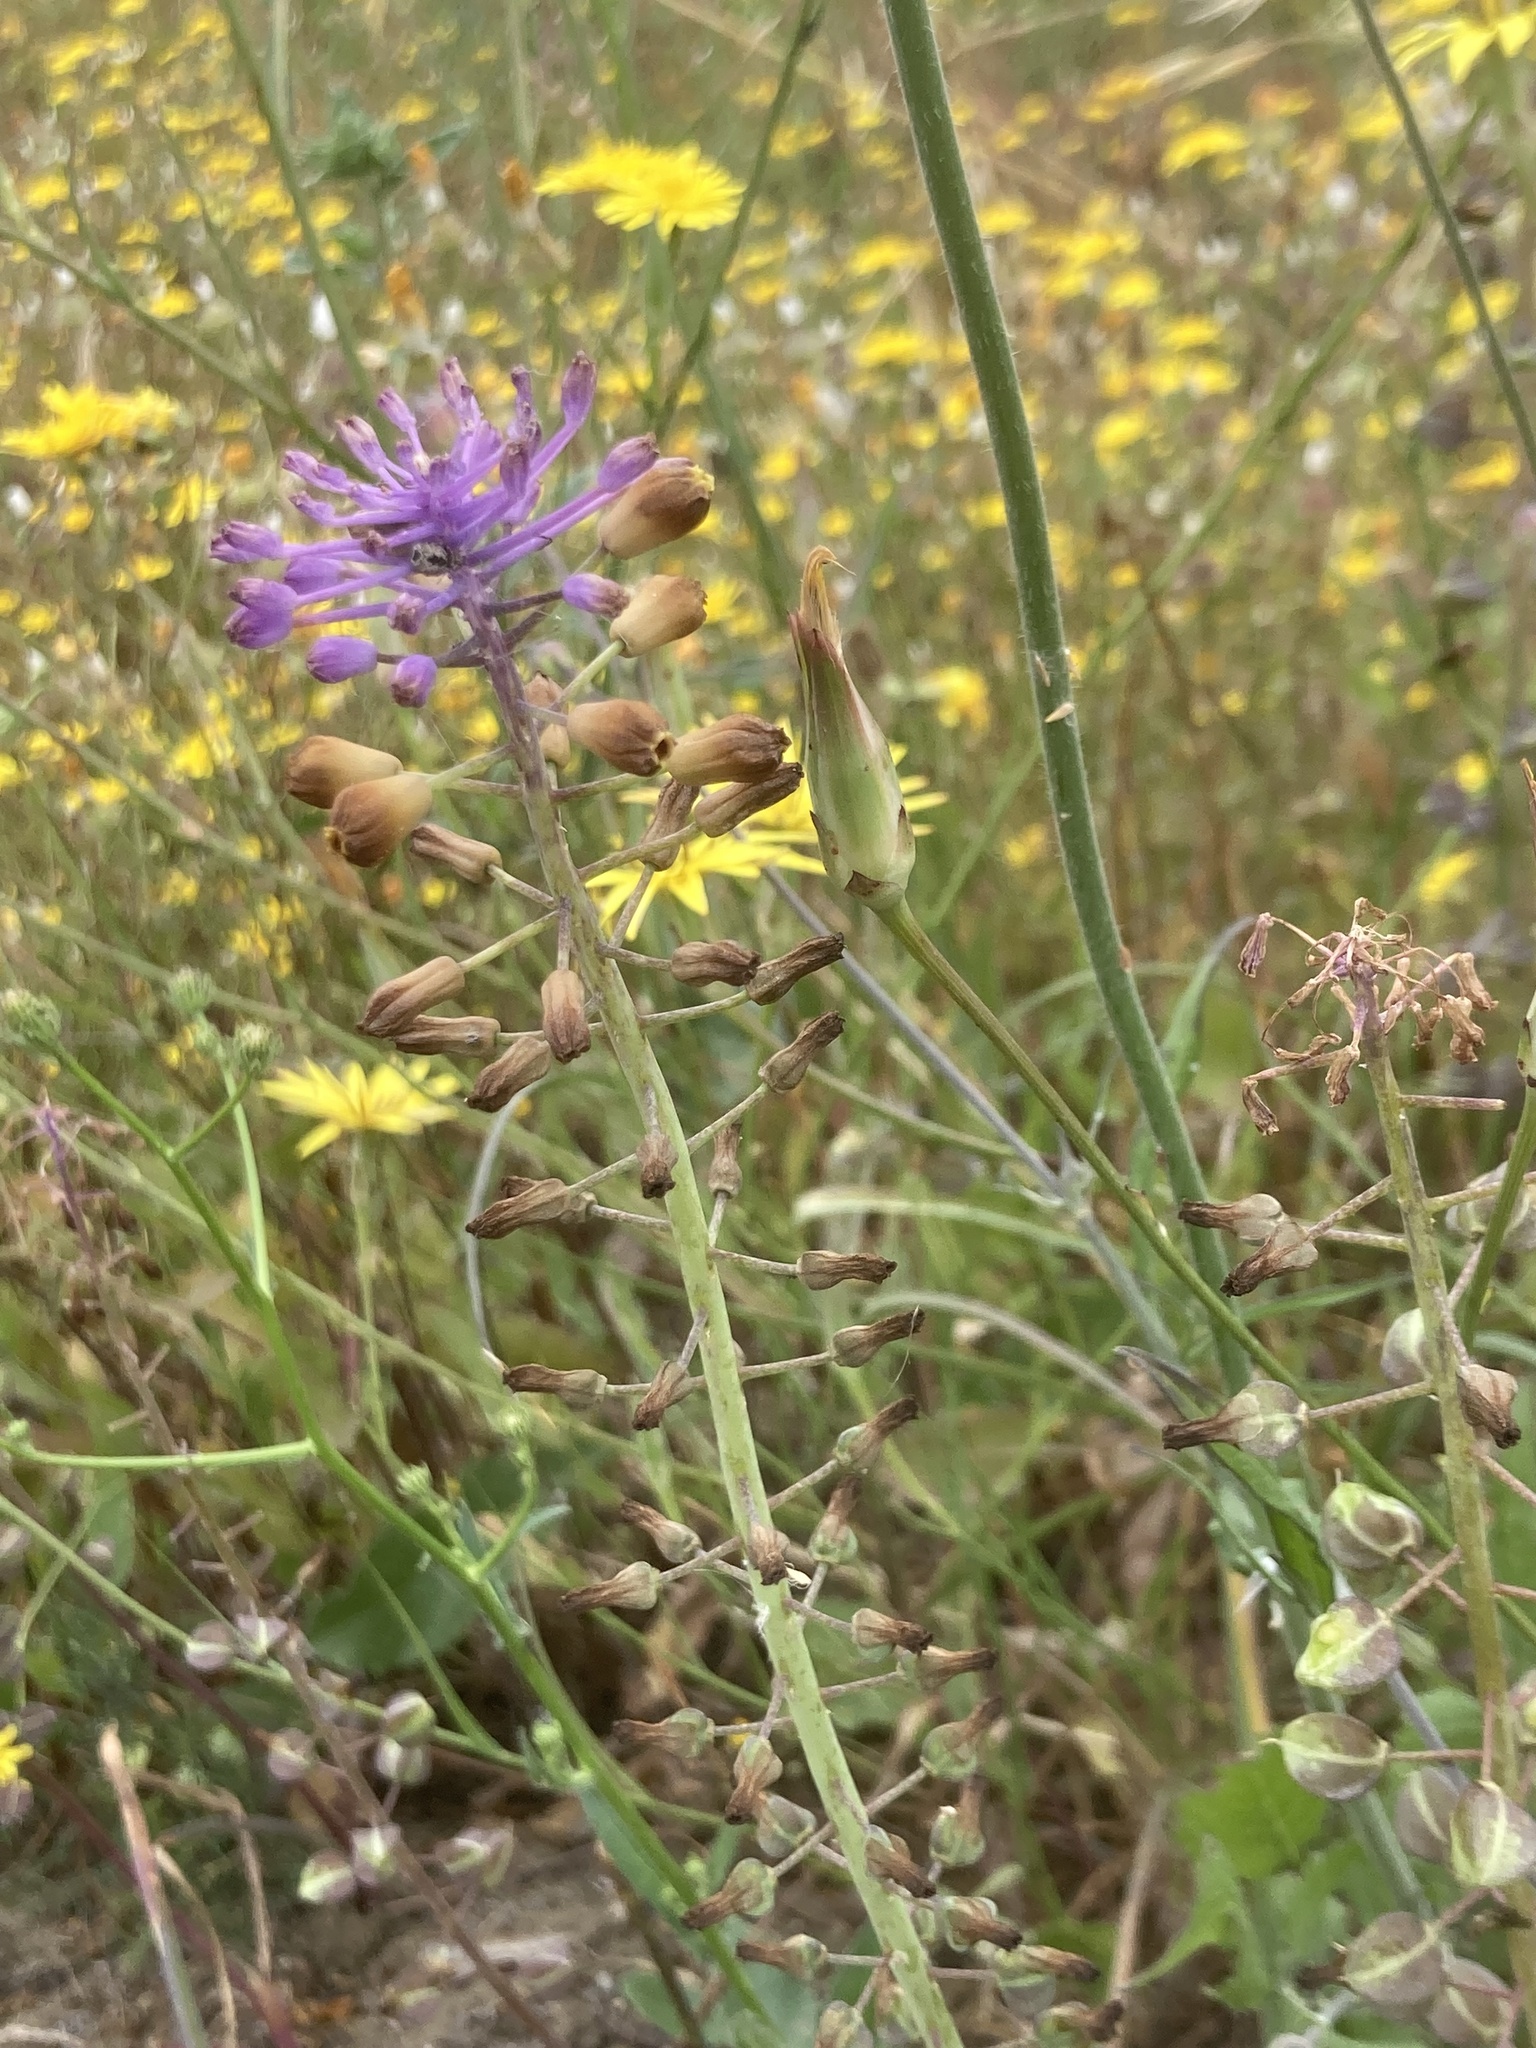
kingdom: Plantae
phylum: Tracheophyta
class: Liliopsida
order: Asparagales
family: Asparagaceae
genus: Muscari
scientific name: Muscari weissii
